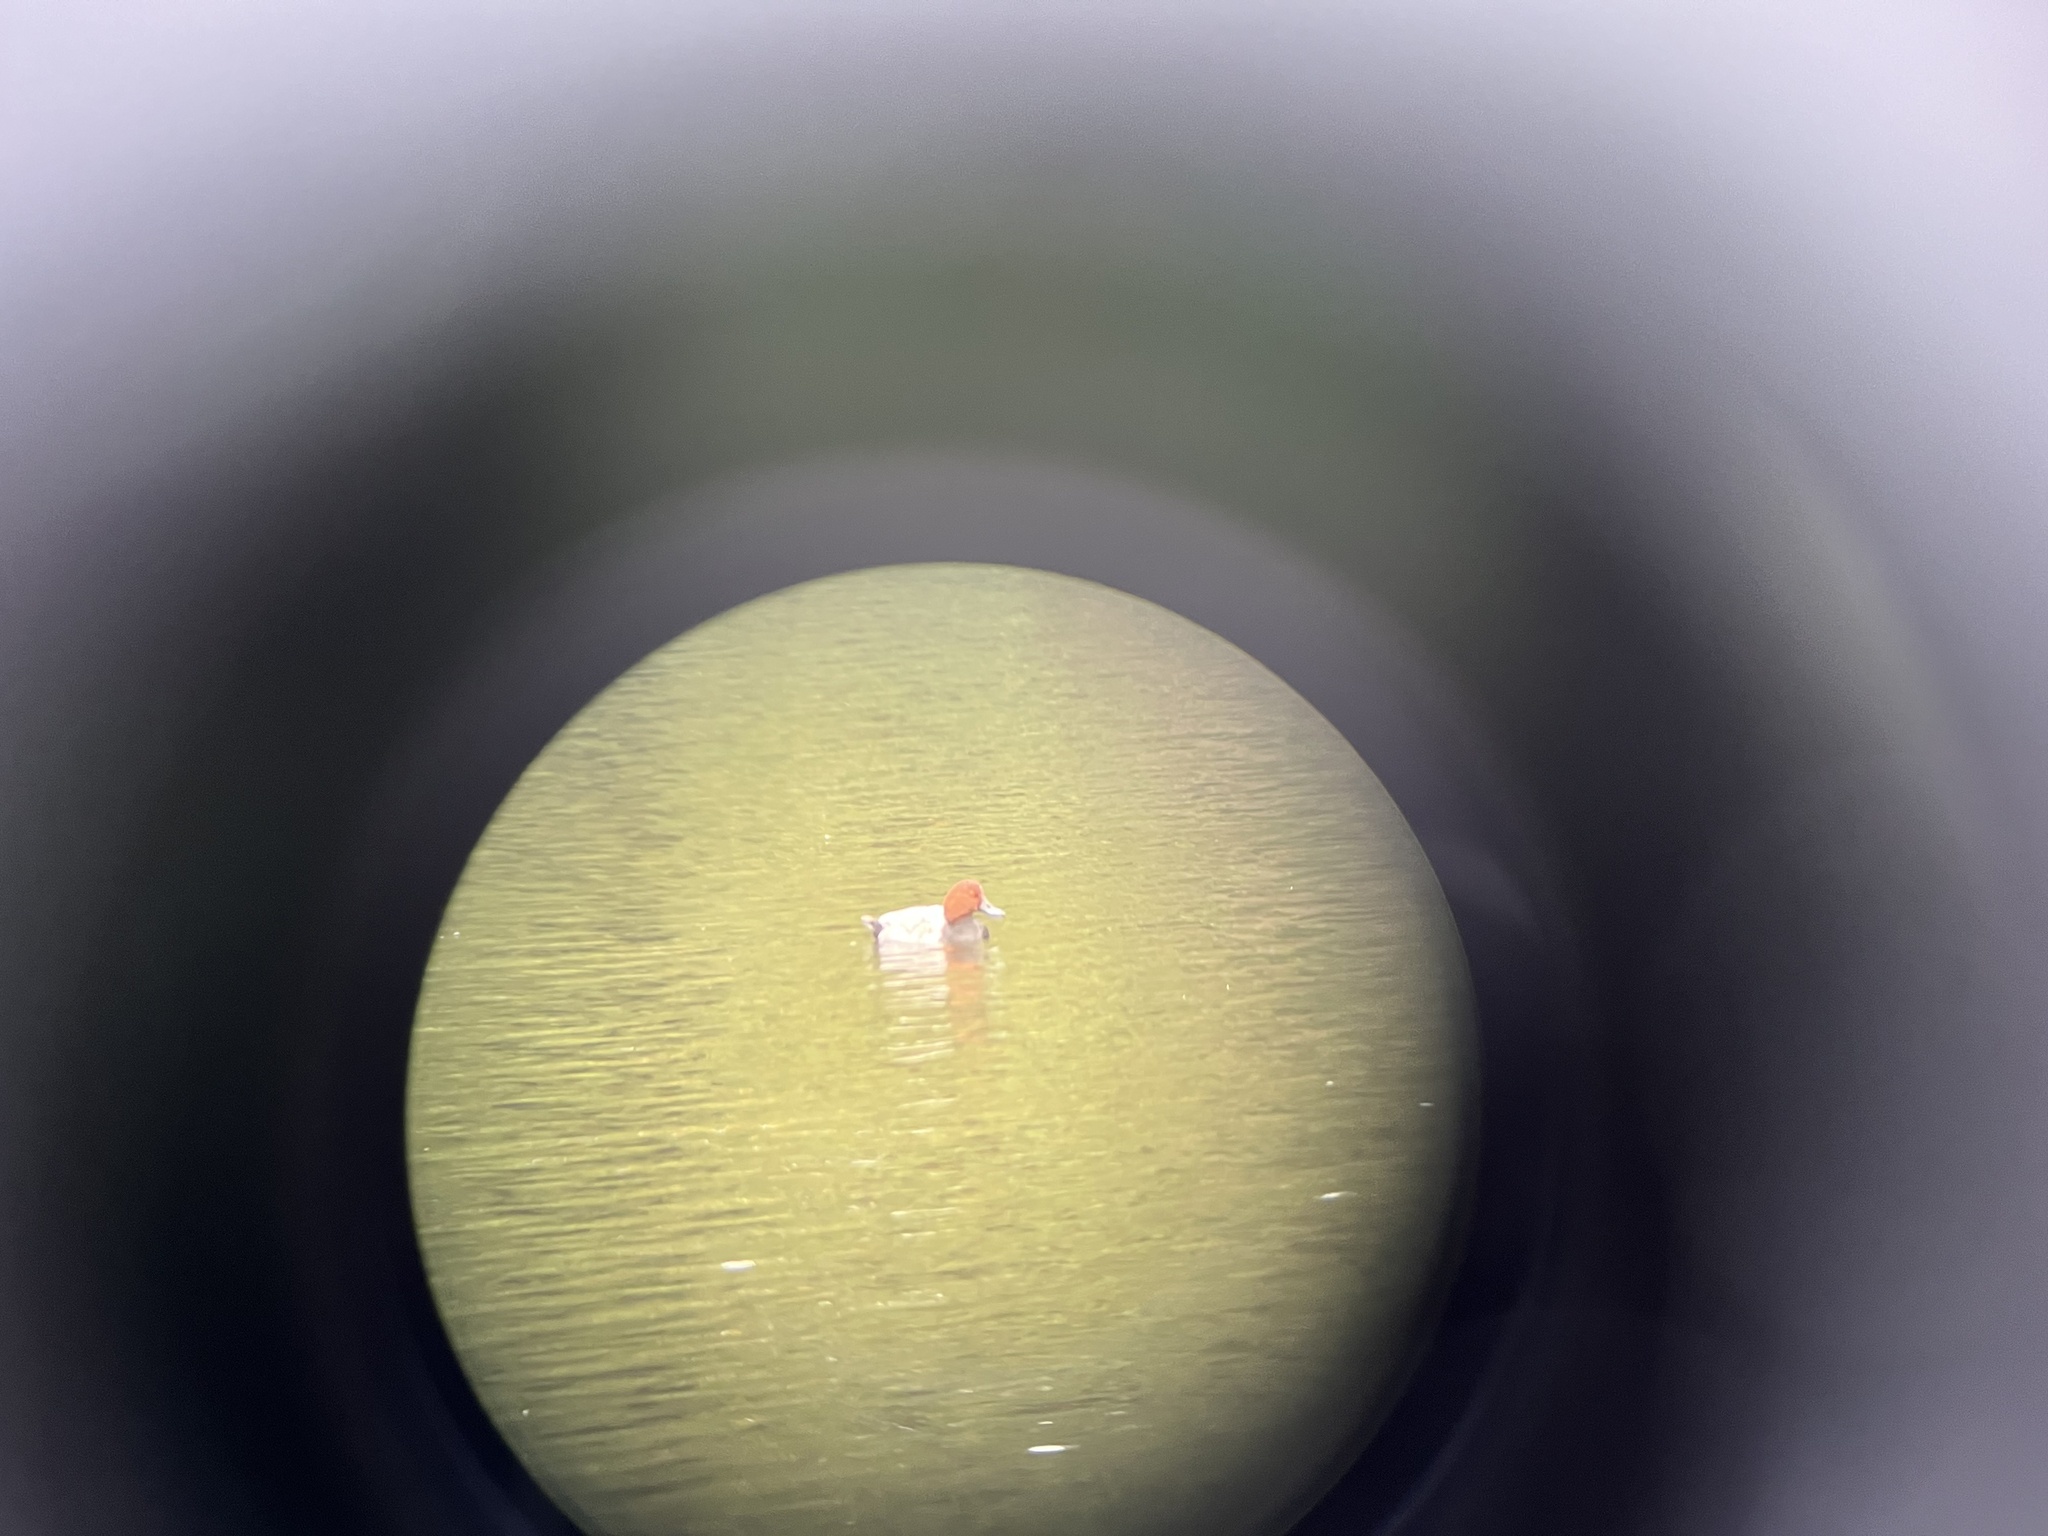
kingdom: Animalia
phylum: Chordata
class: Aves
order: Anseriformes
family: Anatidae
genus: Aythya
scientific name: Aythya ferina
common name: Common pochard
